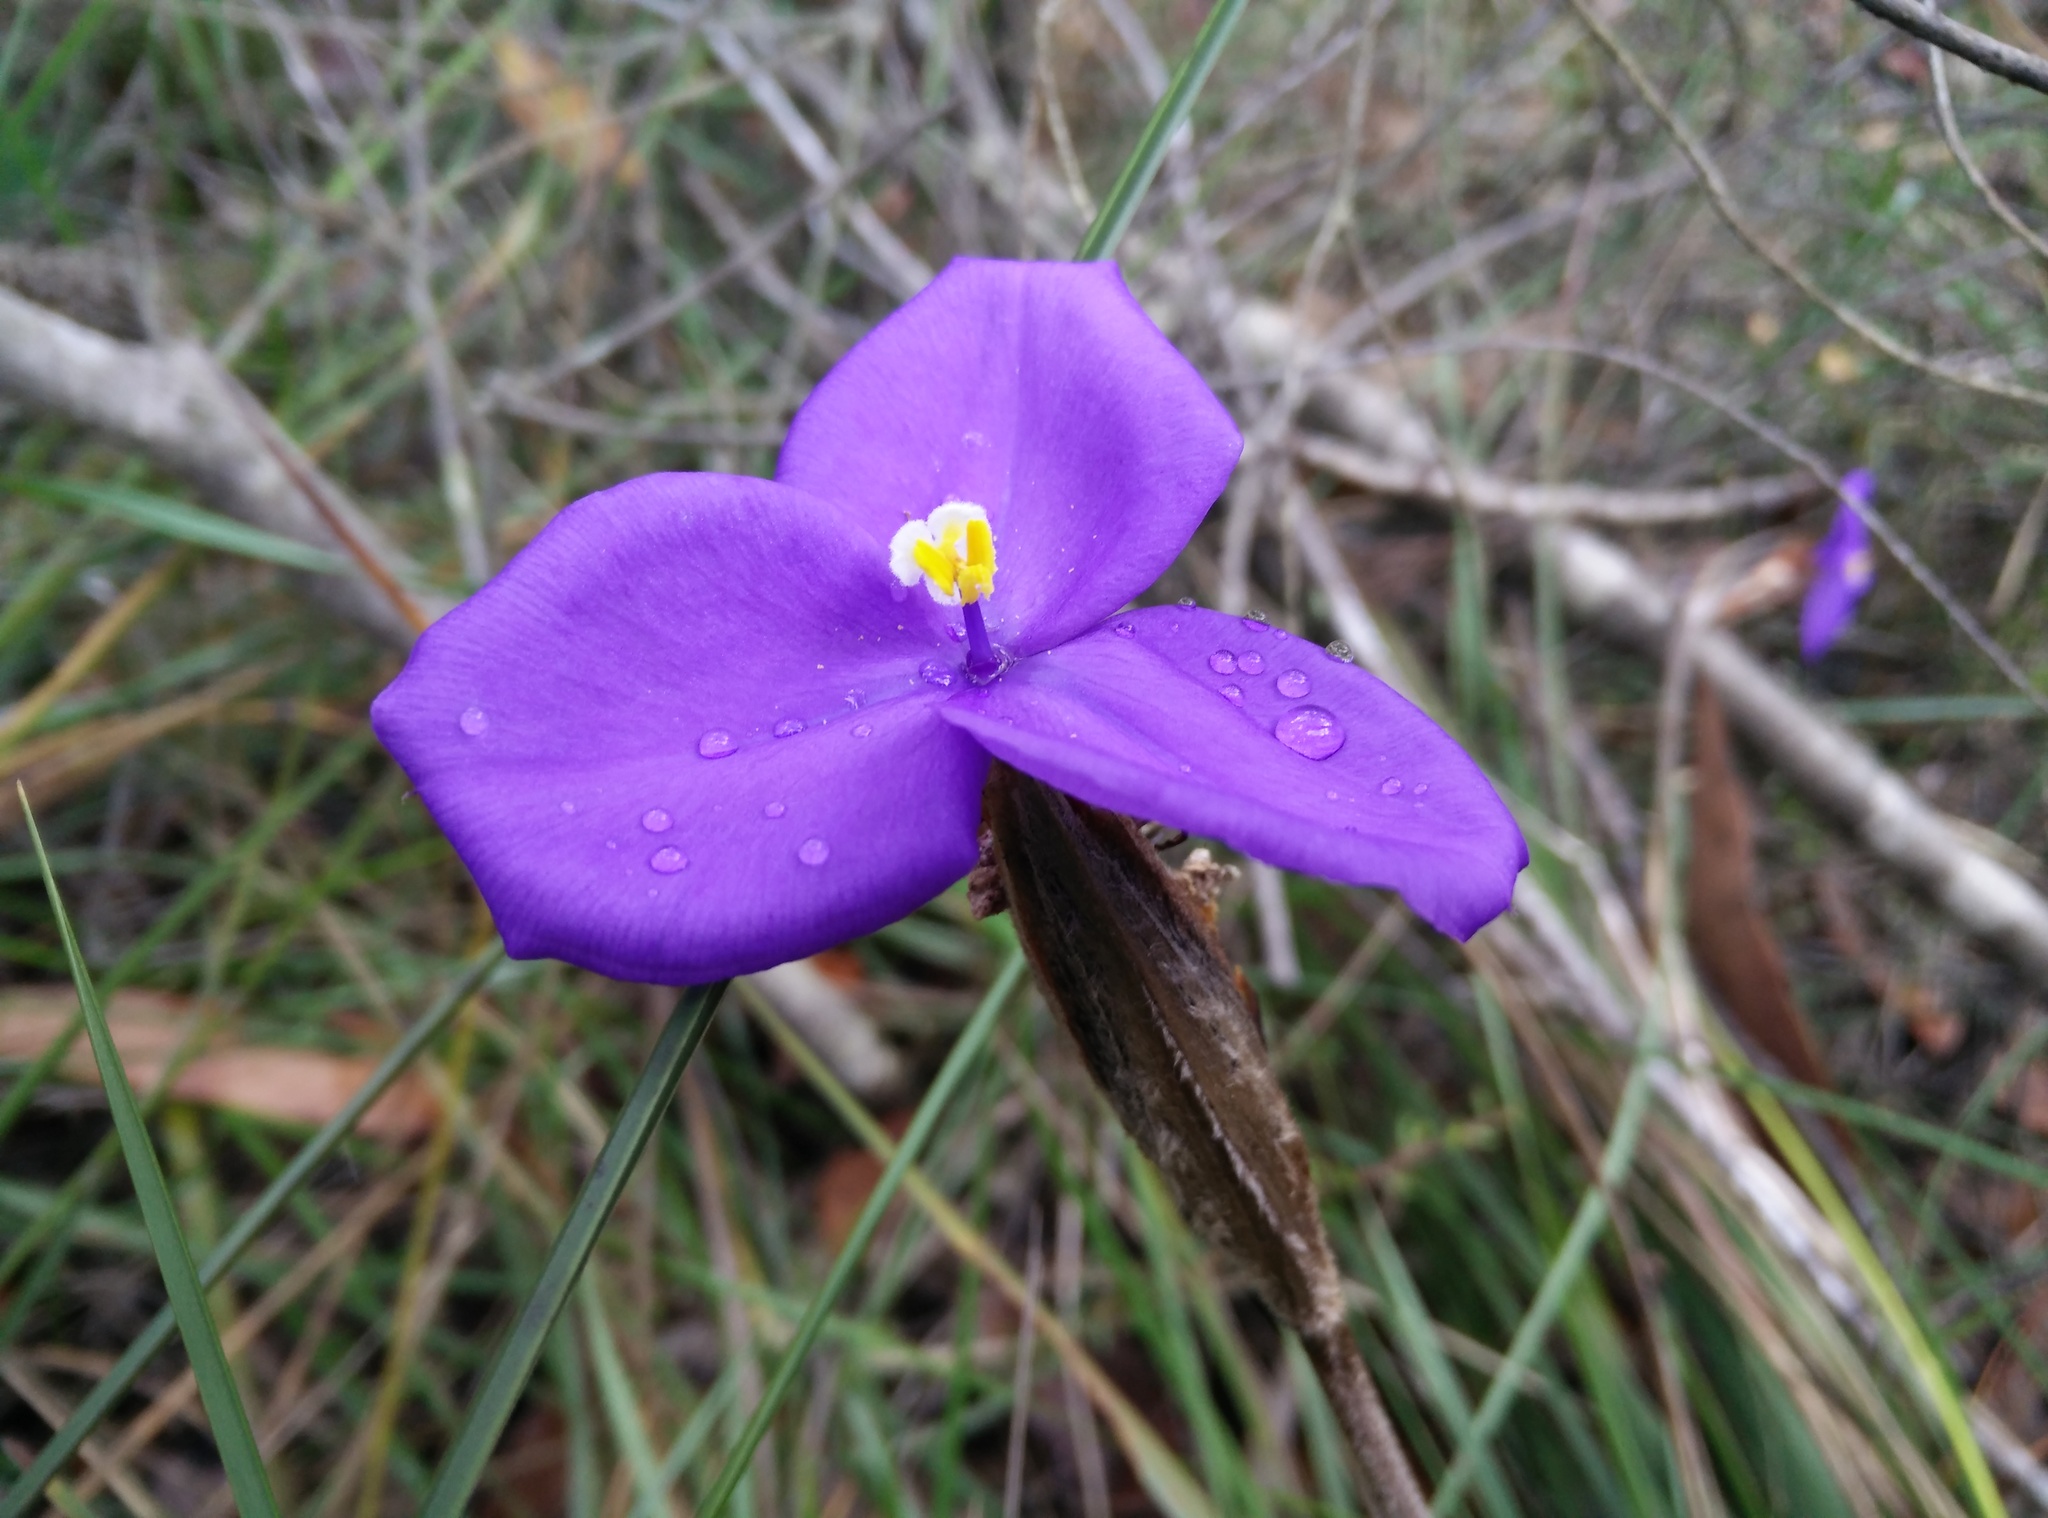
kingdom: Plantae
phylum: Tracheophyta
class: Liliopsida
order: Asparagales
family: Iridaceae
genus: Patersonia
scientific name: Patersonia sericea
